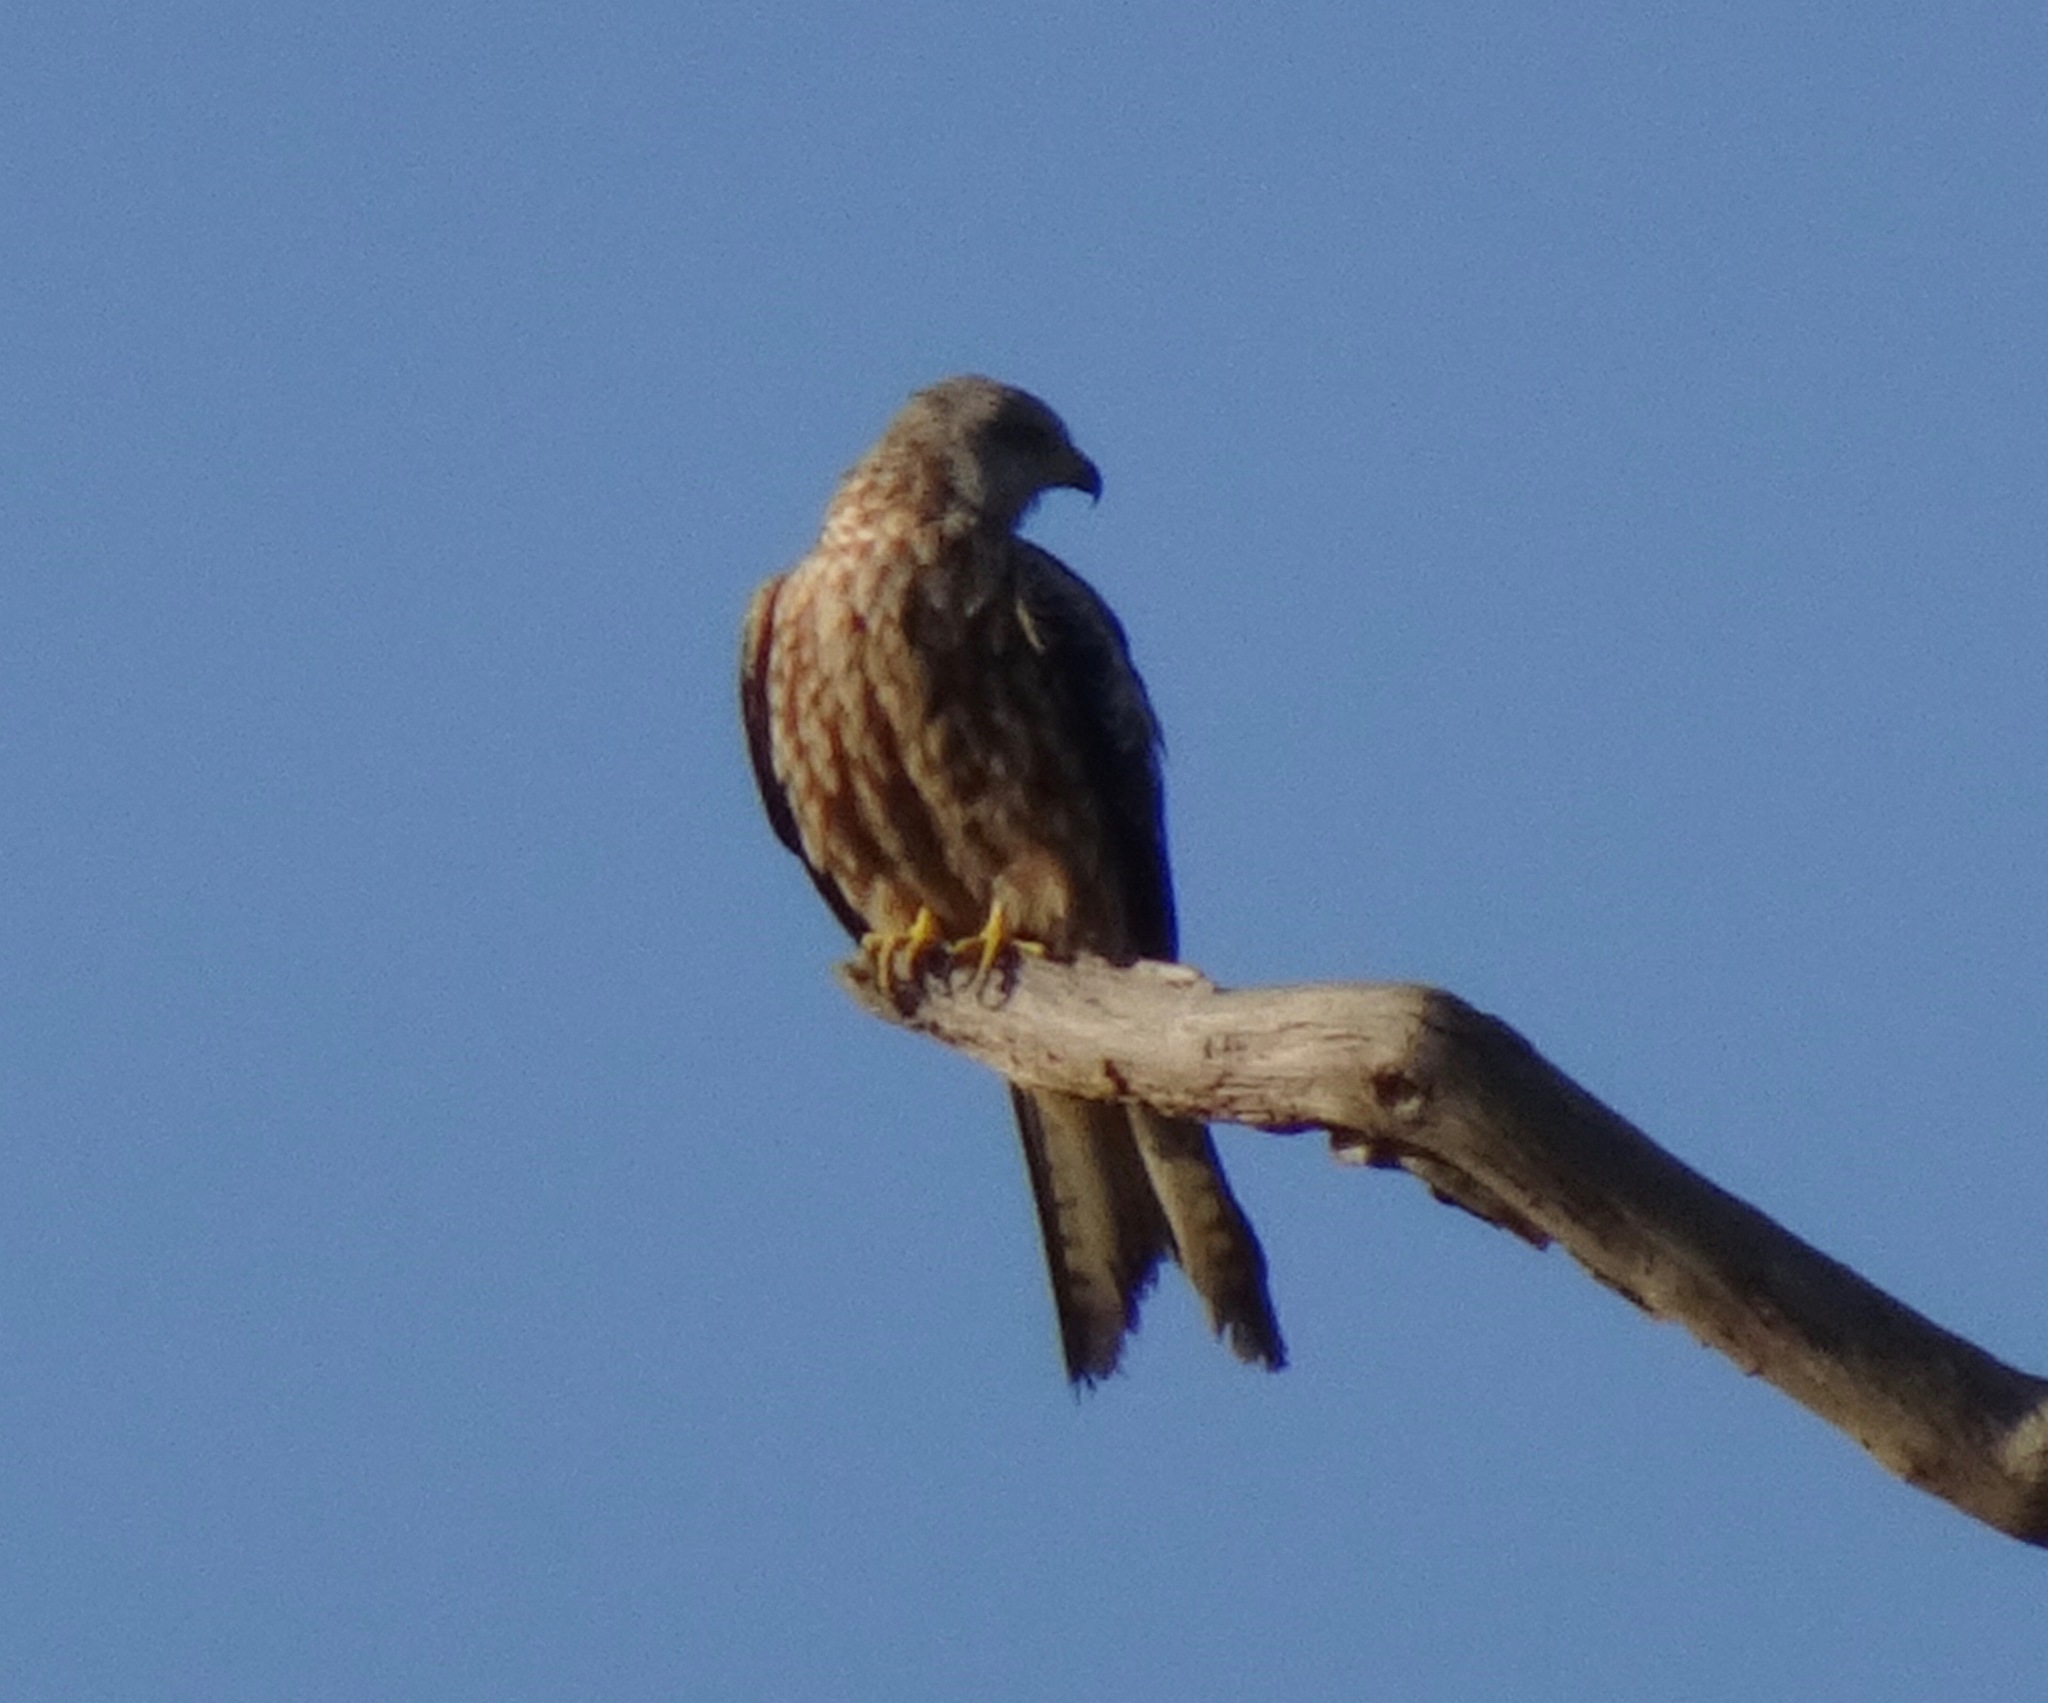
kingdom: Animalia
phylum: Chordata
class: Aves
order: Accipitriformes
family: Accipitridae
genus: Milvus
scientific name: Milvus milvus
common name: Red kite
